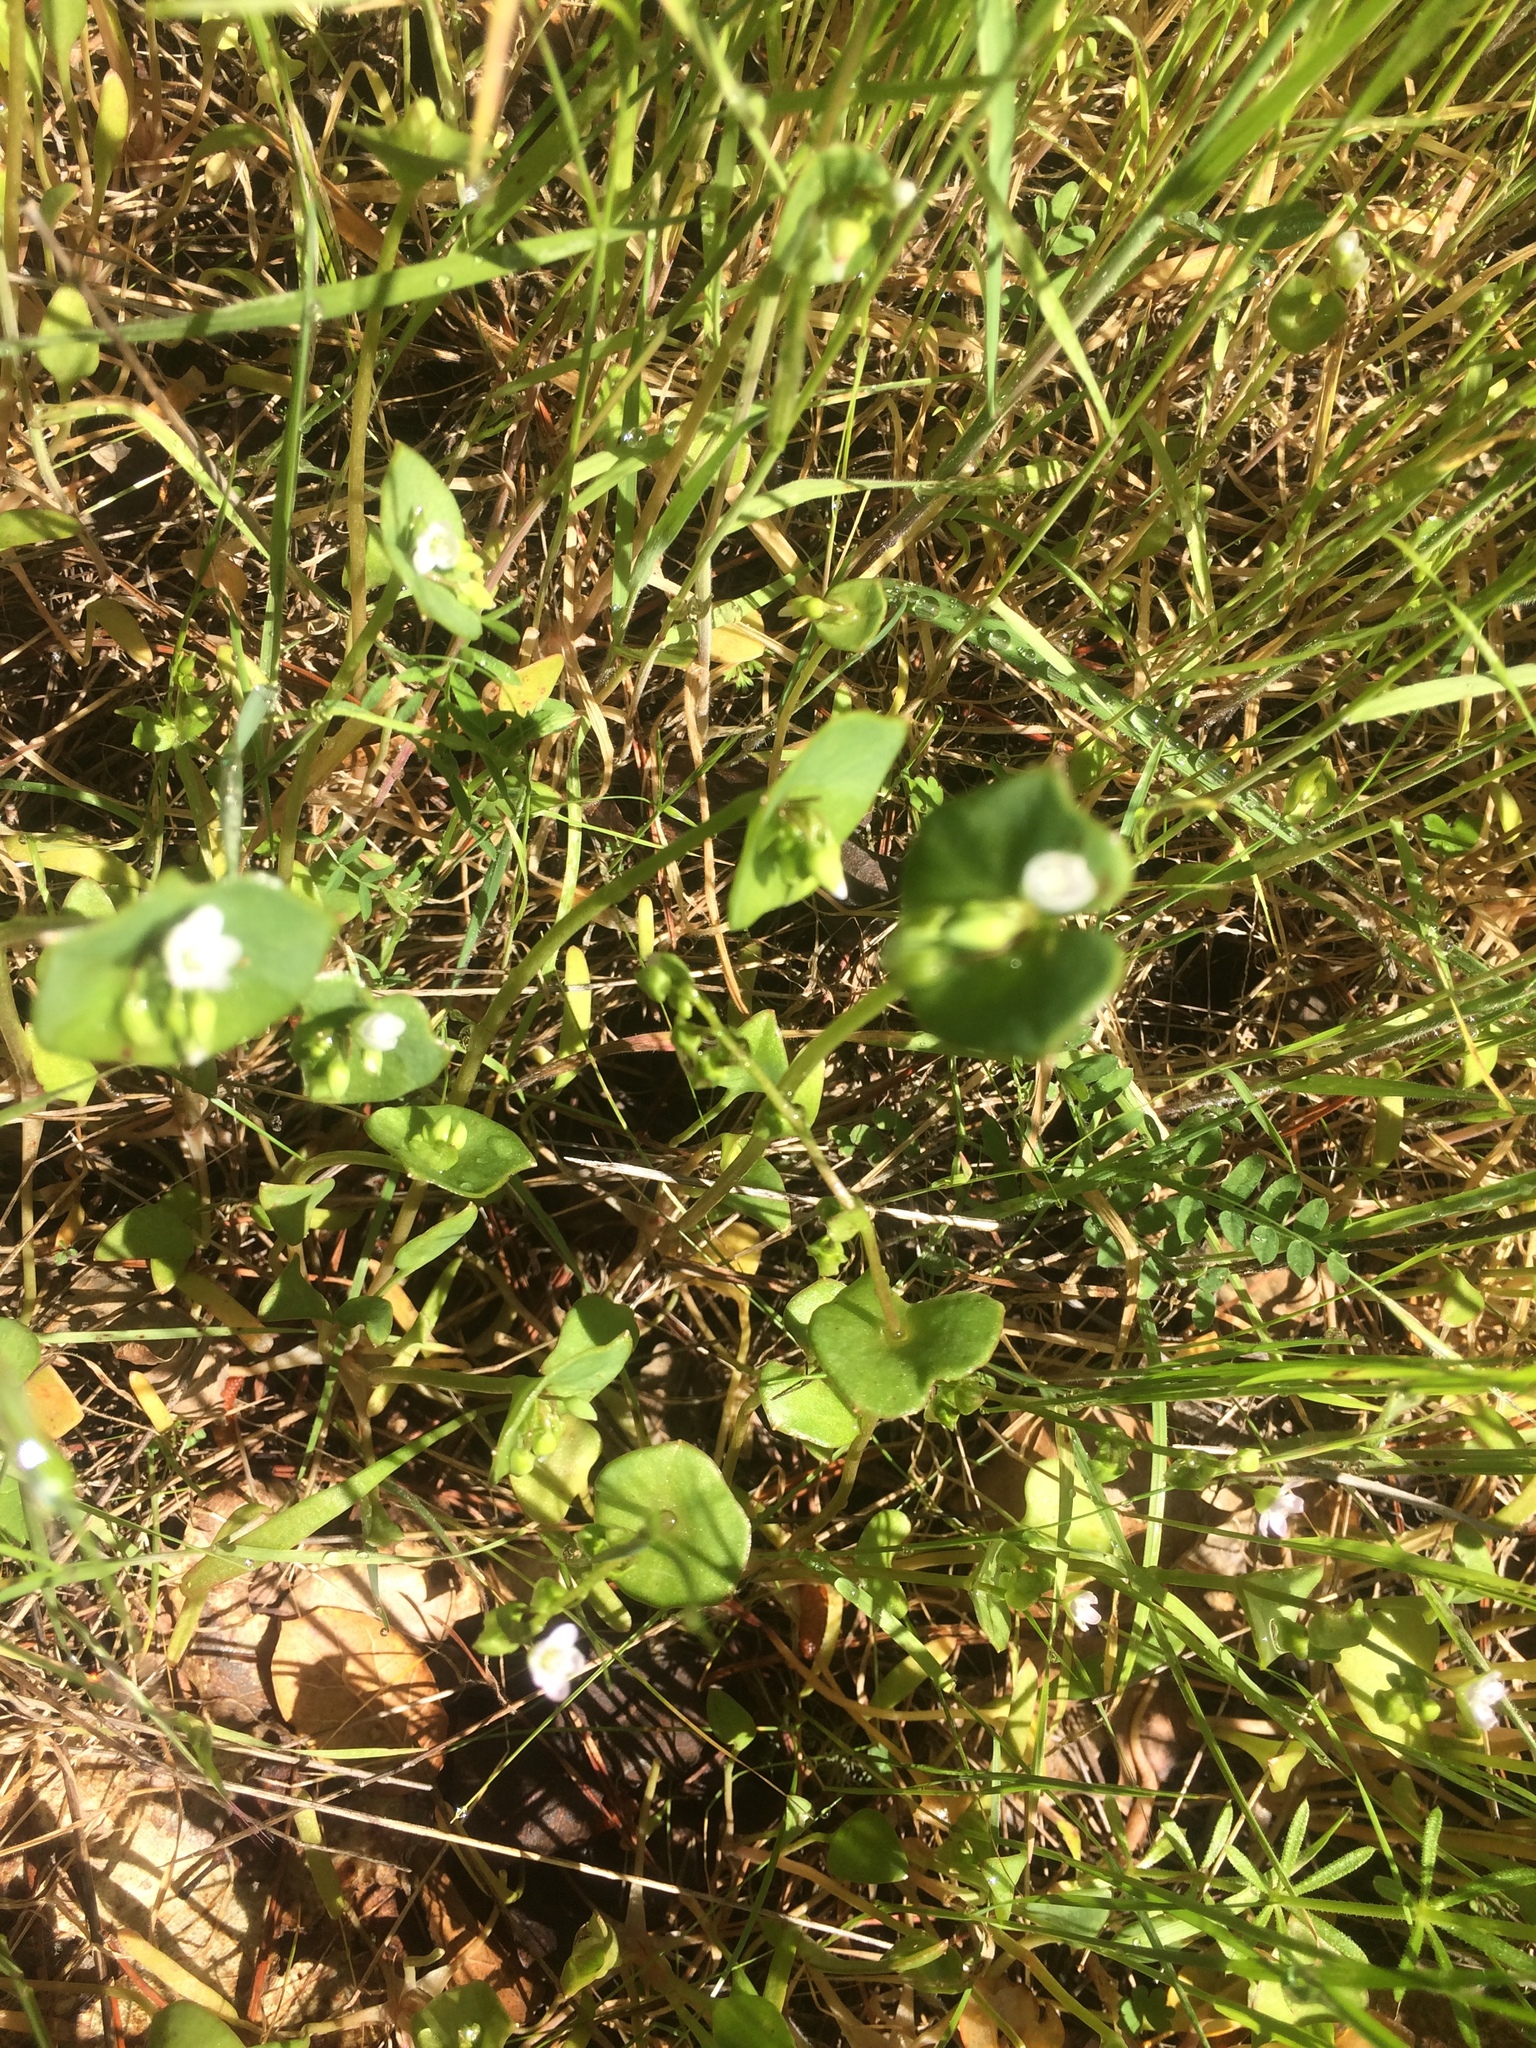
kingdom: Plantae
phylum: Tracheophyta
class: Magnoliopsida
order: Caryophyllales
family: Montiaceae
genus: Claytonia
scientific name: Claytonia perfoliata
